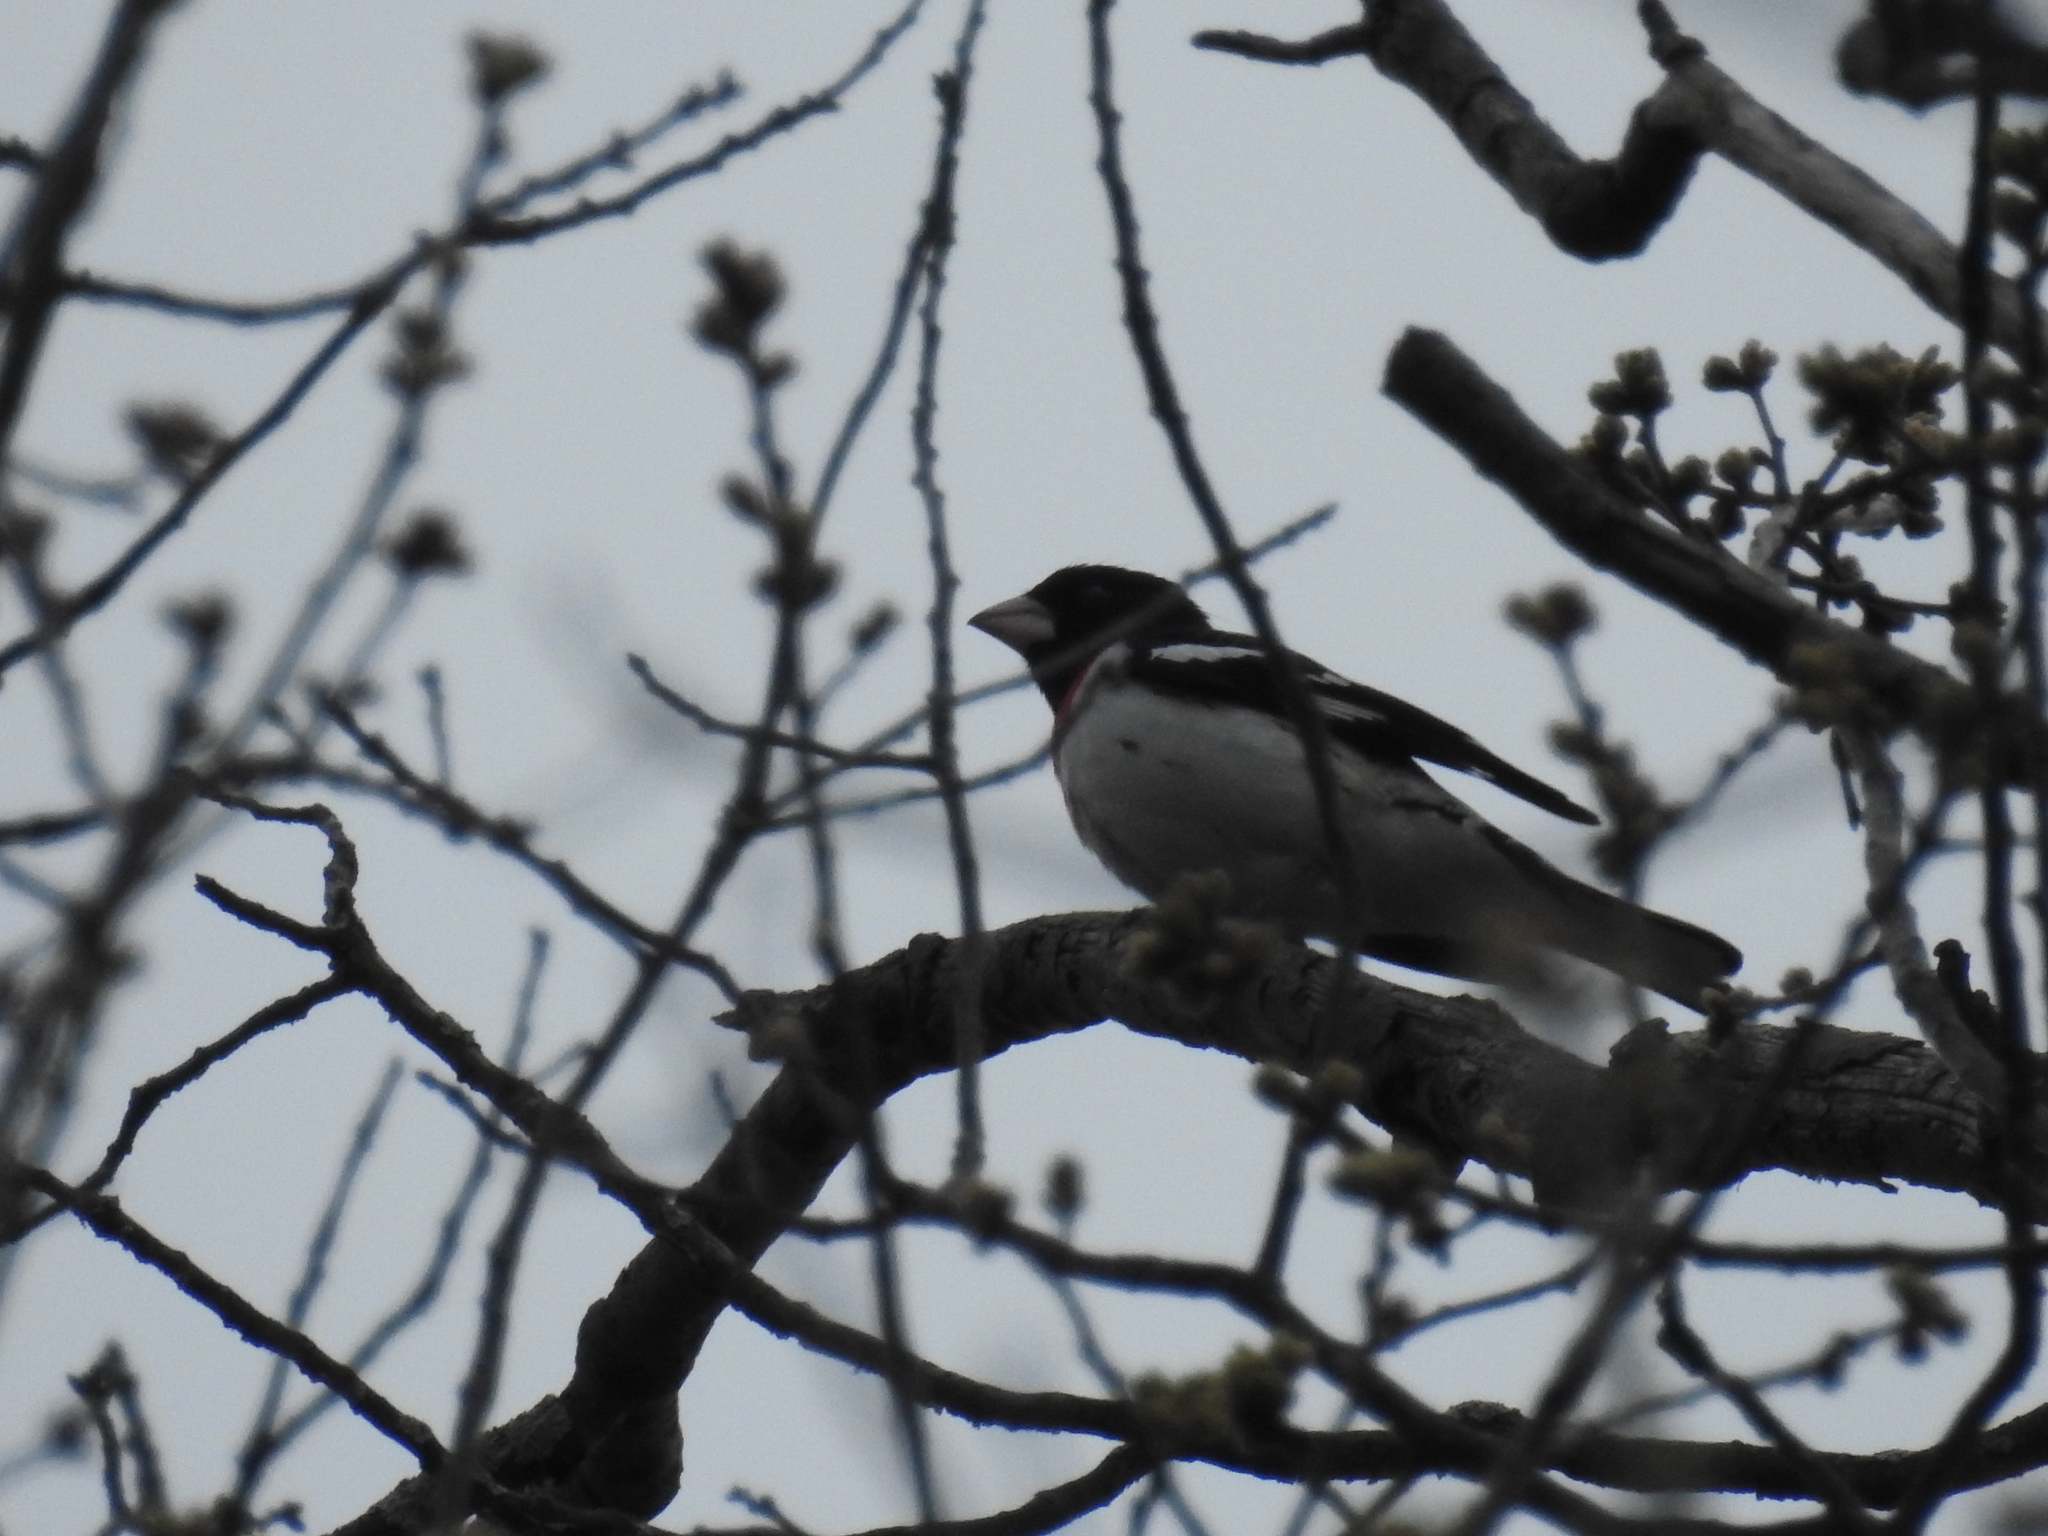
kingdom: Animalia
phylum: Chordata
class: Aves
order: Passeriformes
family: Cardinalidae
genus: Pheucticus
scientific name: Pheucticus ludovicianus
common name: Rose-breasted grosbeak
